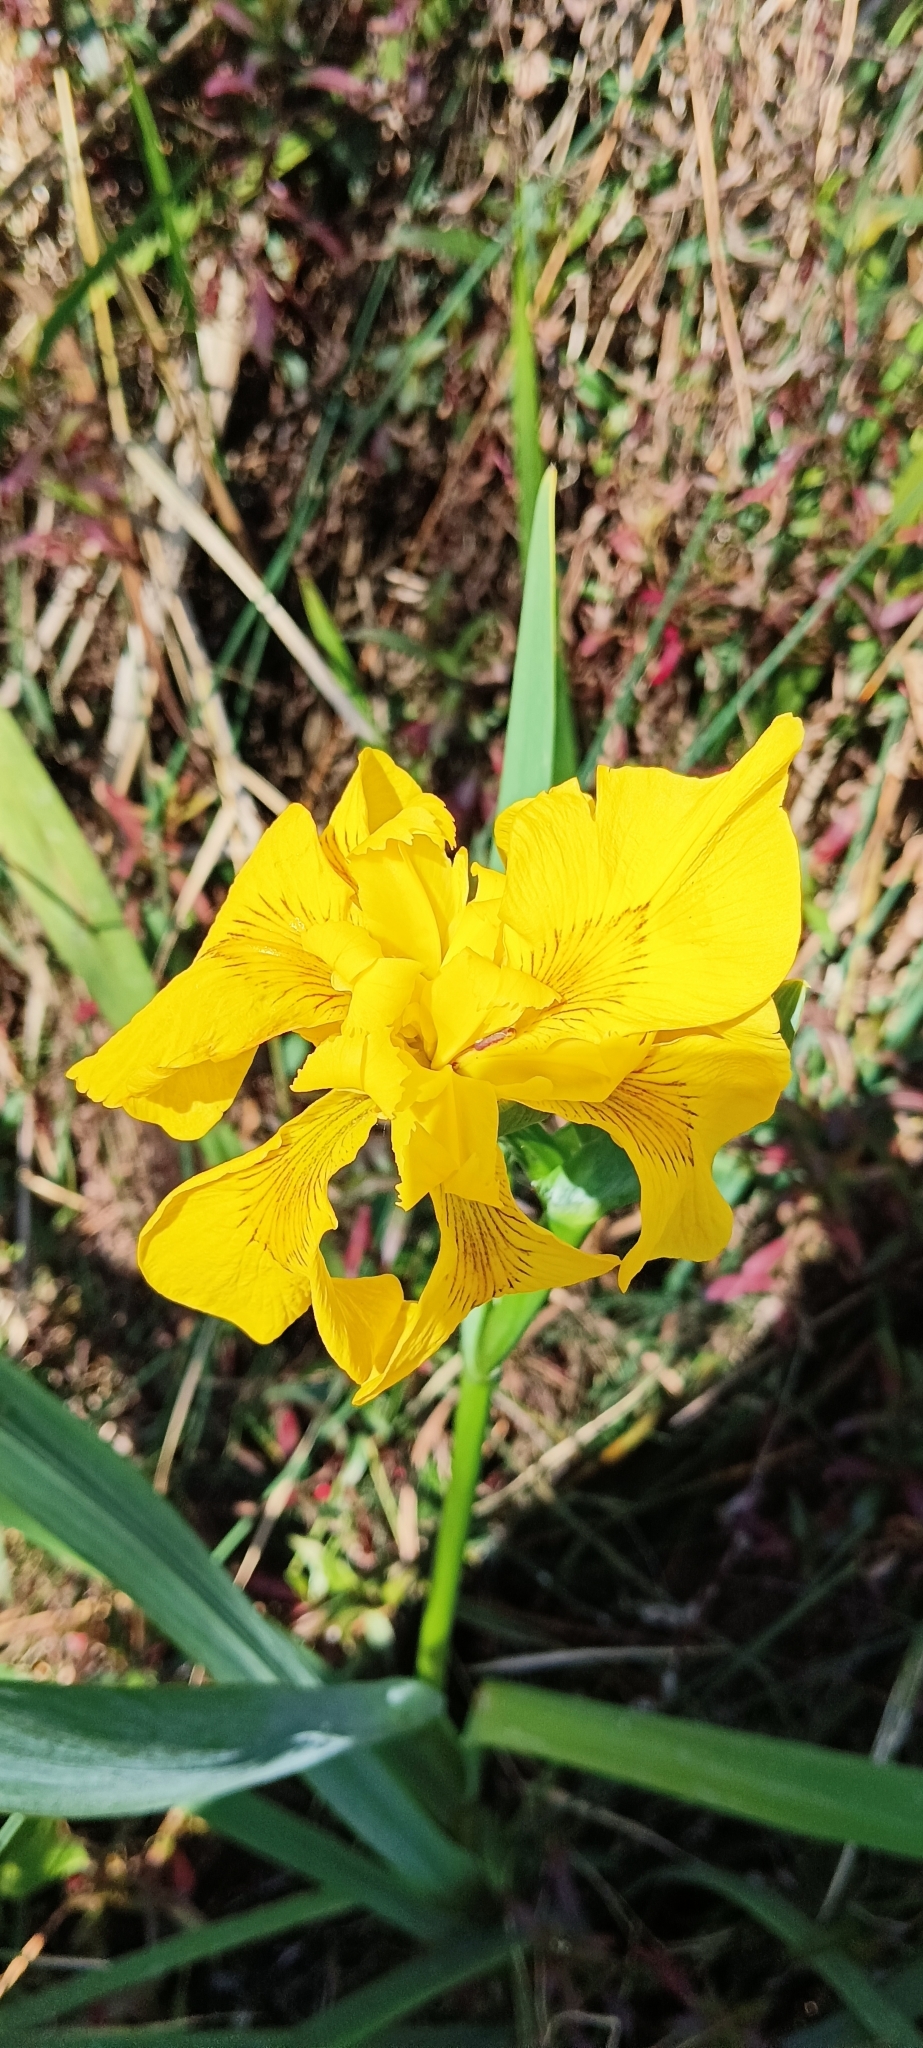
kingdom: Plantae
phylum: Tracheophyta
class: Liliopsida
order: Asparagales
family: Iridaceae
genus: Iris
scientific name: Iris pseudacorus
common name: Yellow flag
